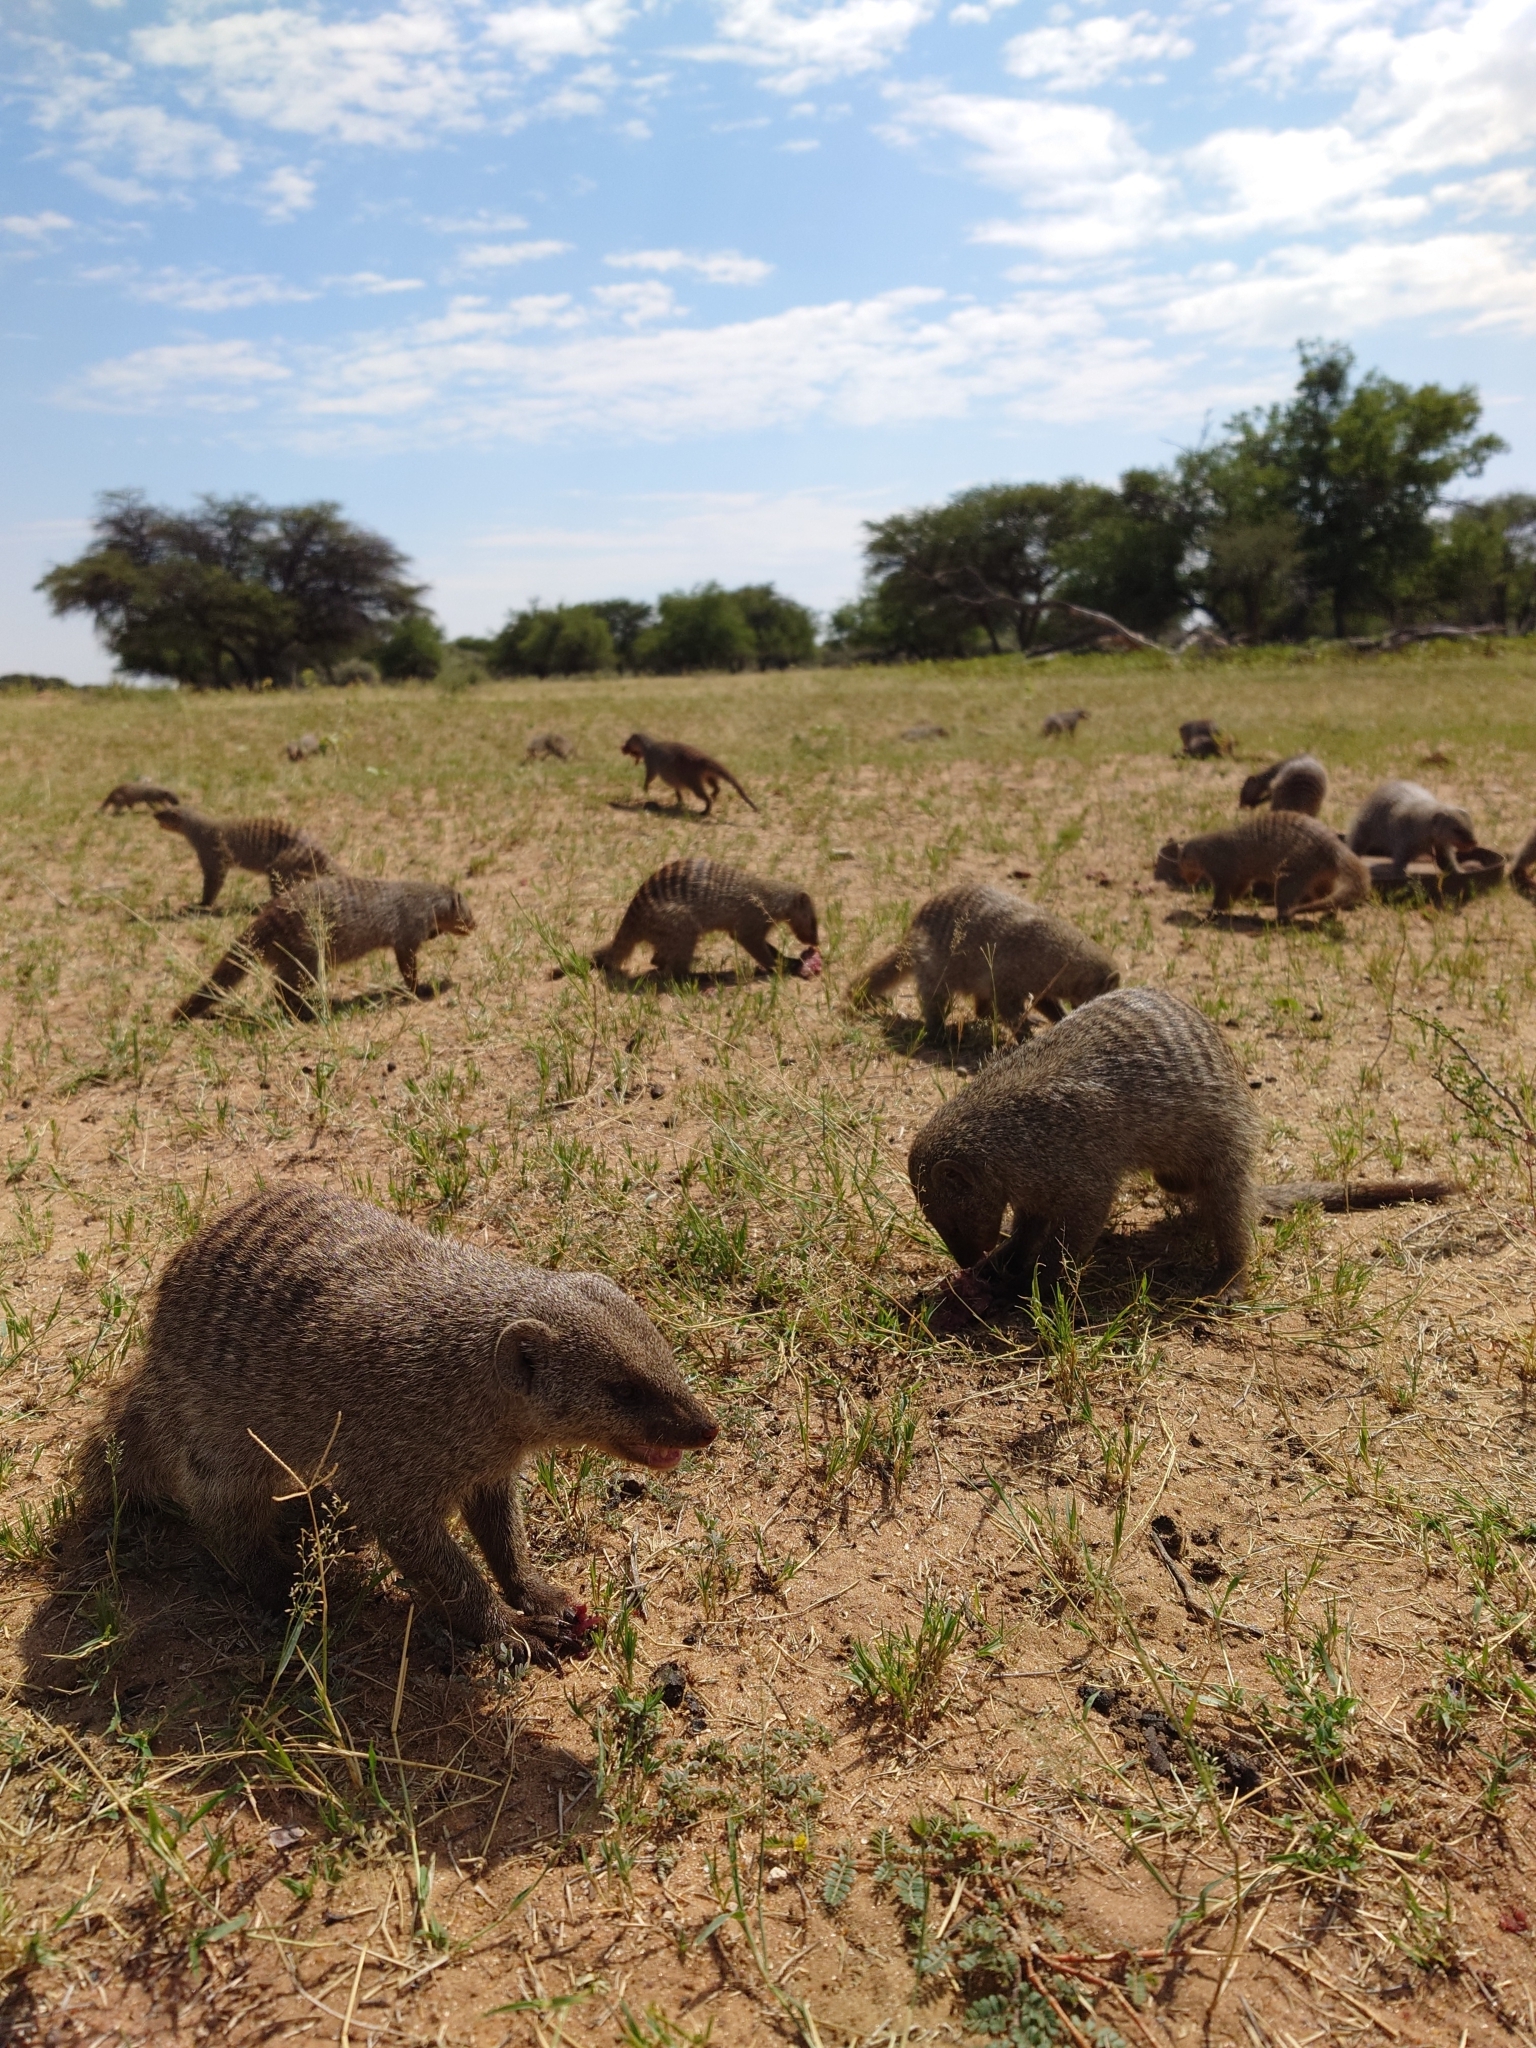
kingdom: Animalia
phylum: Chordata
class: Mammalia
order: Carnivora
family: Herpestidae
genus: Mungos
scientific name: Mungos mungo
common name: Banded mongoose
